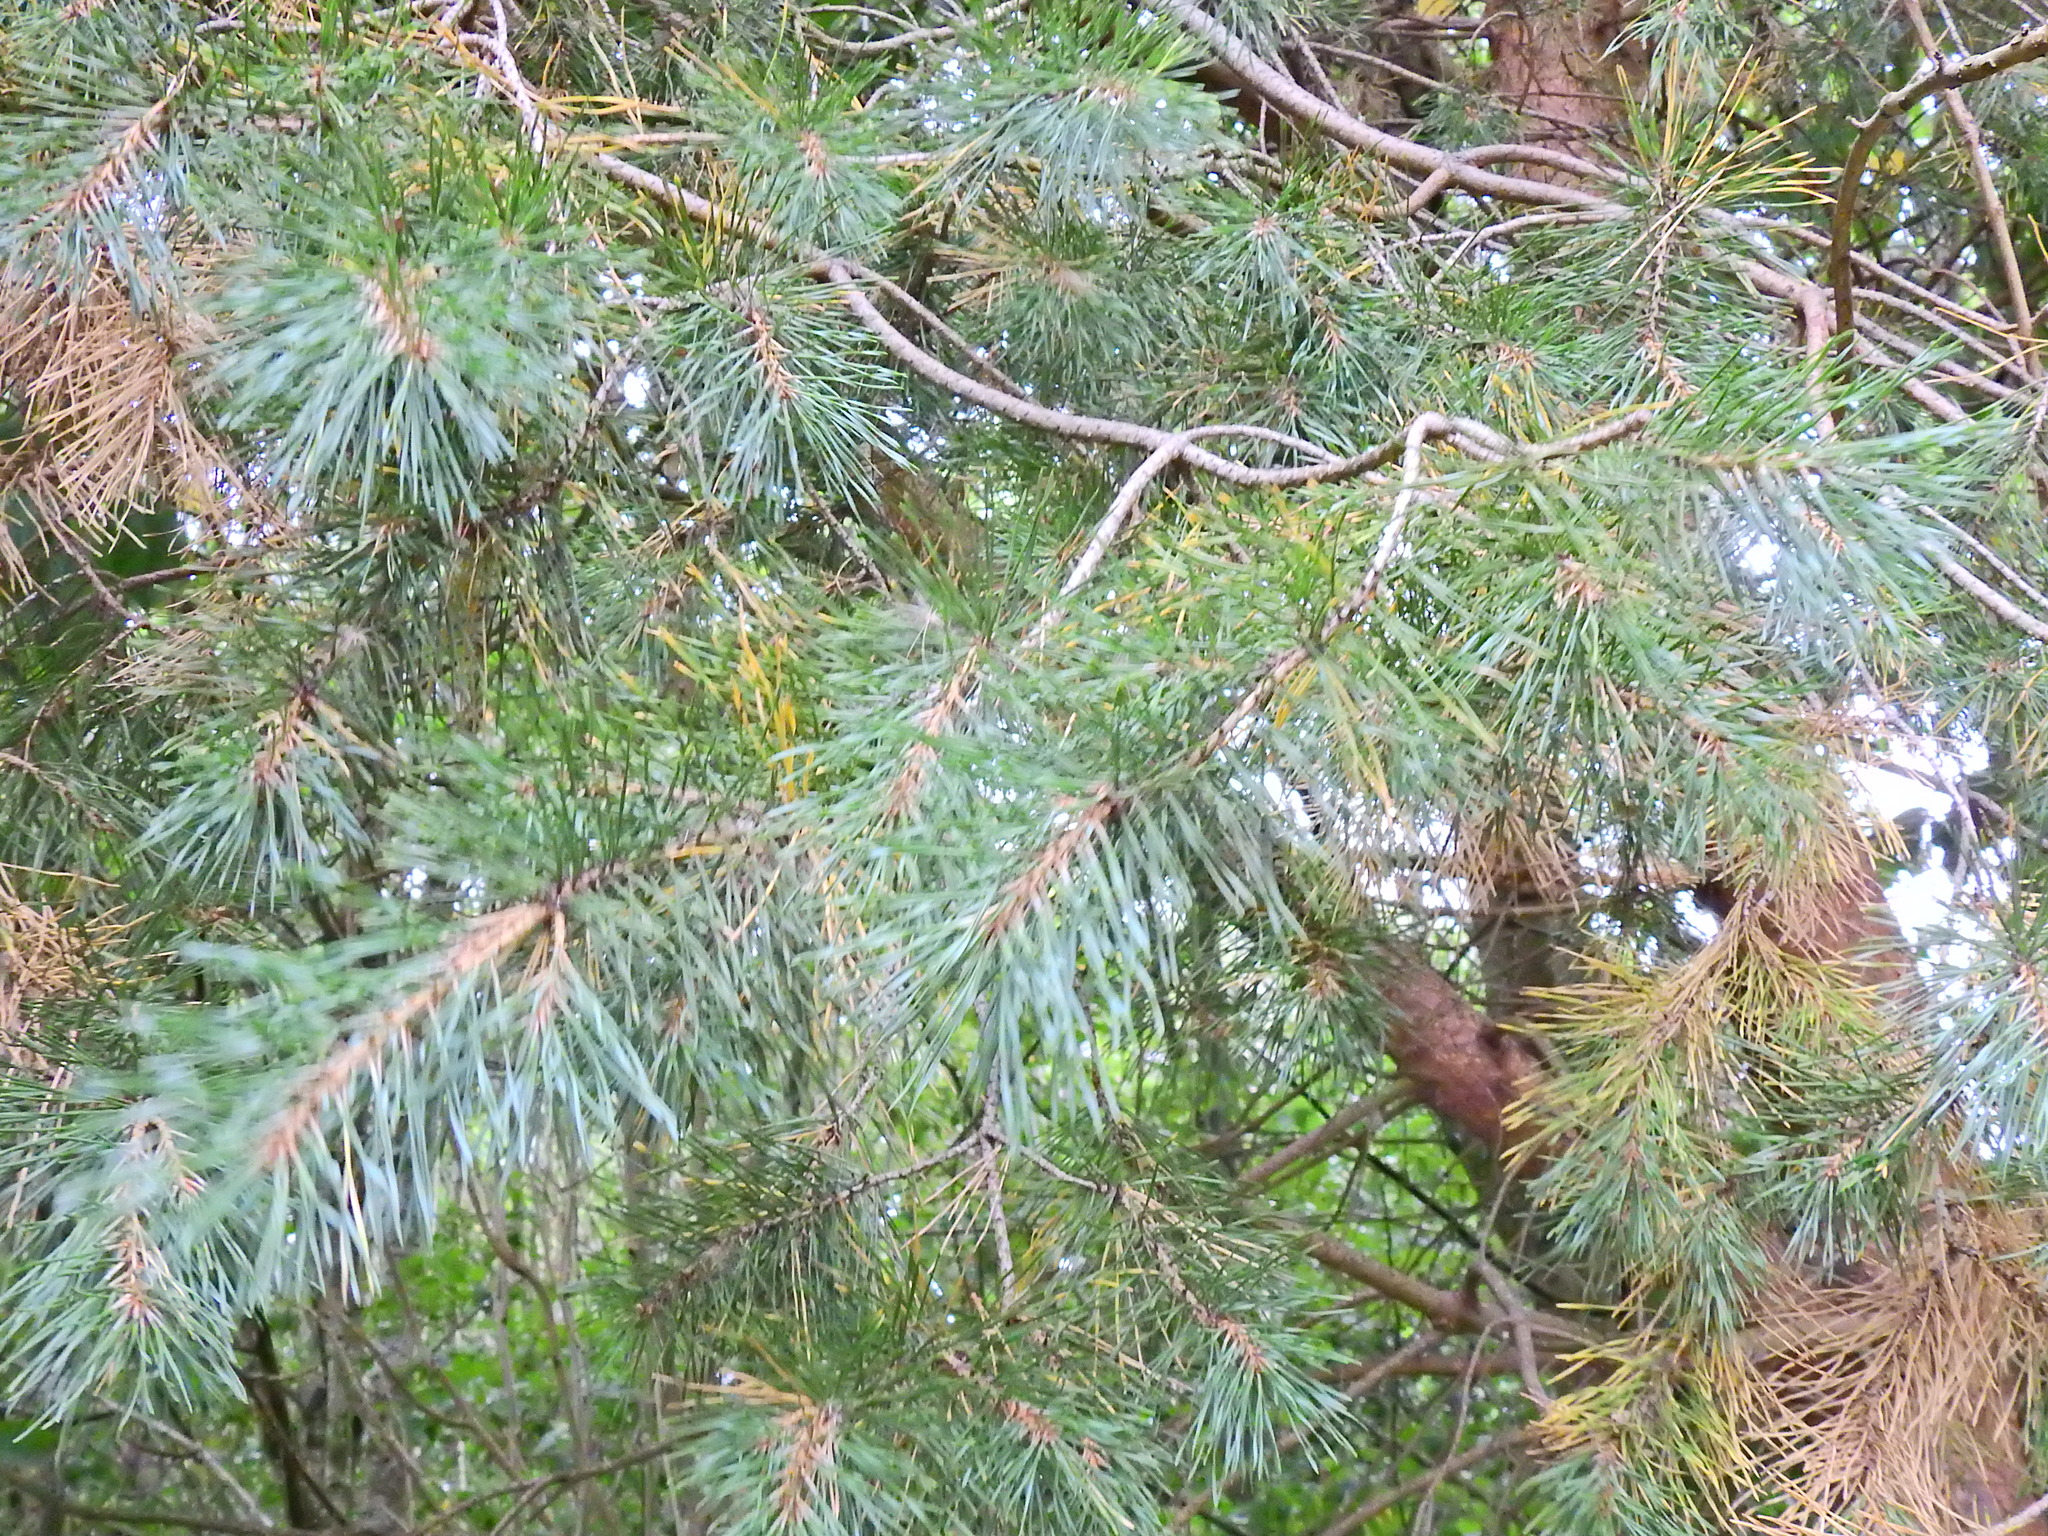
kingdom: Plantae
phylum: Tracheophyta
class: Pinopsida
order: Pinales
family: Pinaceae
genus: Pinus
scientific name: Pinus sylvestris
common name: Scots pine
